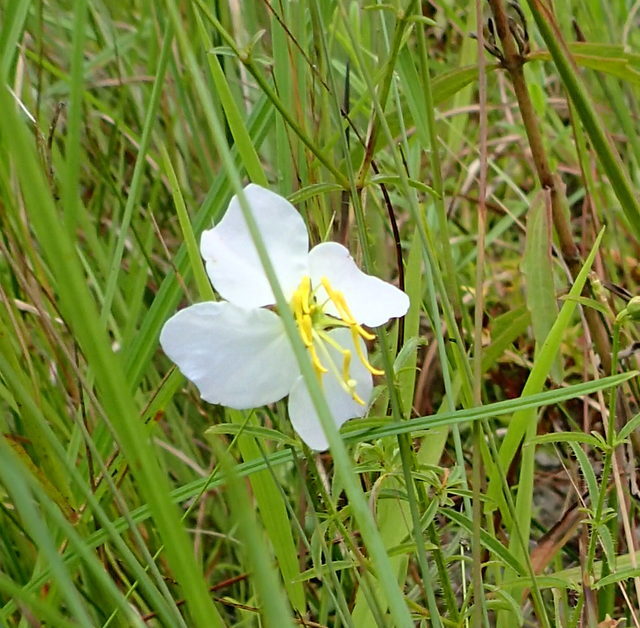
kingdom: Plantae
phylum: Tracheophyta
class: Magnoliopsida
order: Myrtales
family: Melastomataceae
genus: Rhexia
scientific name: Rhexia mariana
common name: Dull meadow-pitcher
